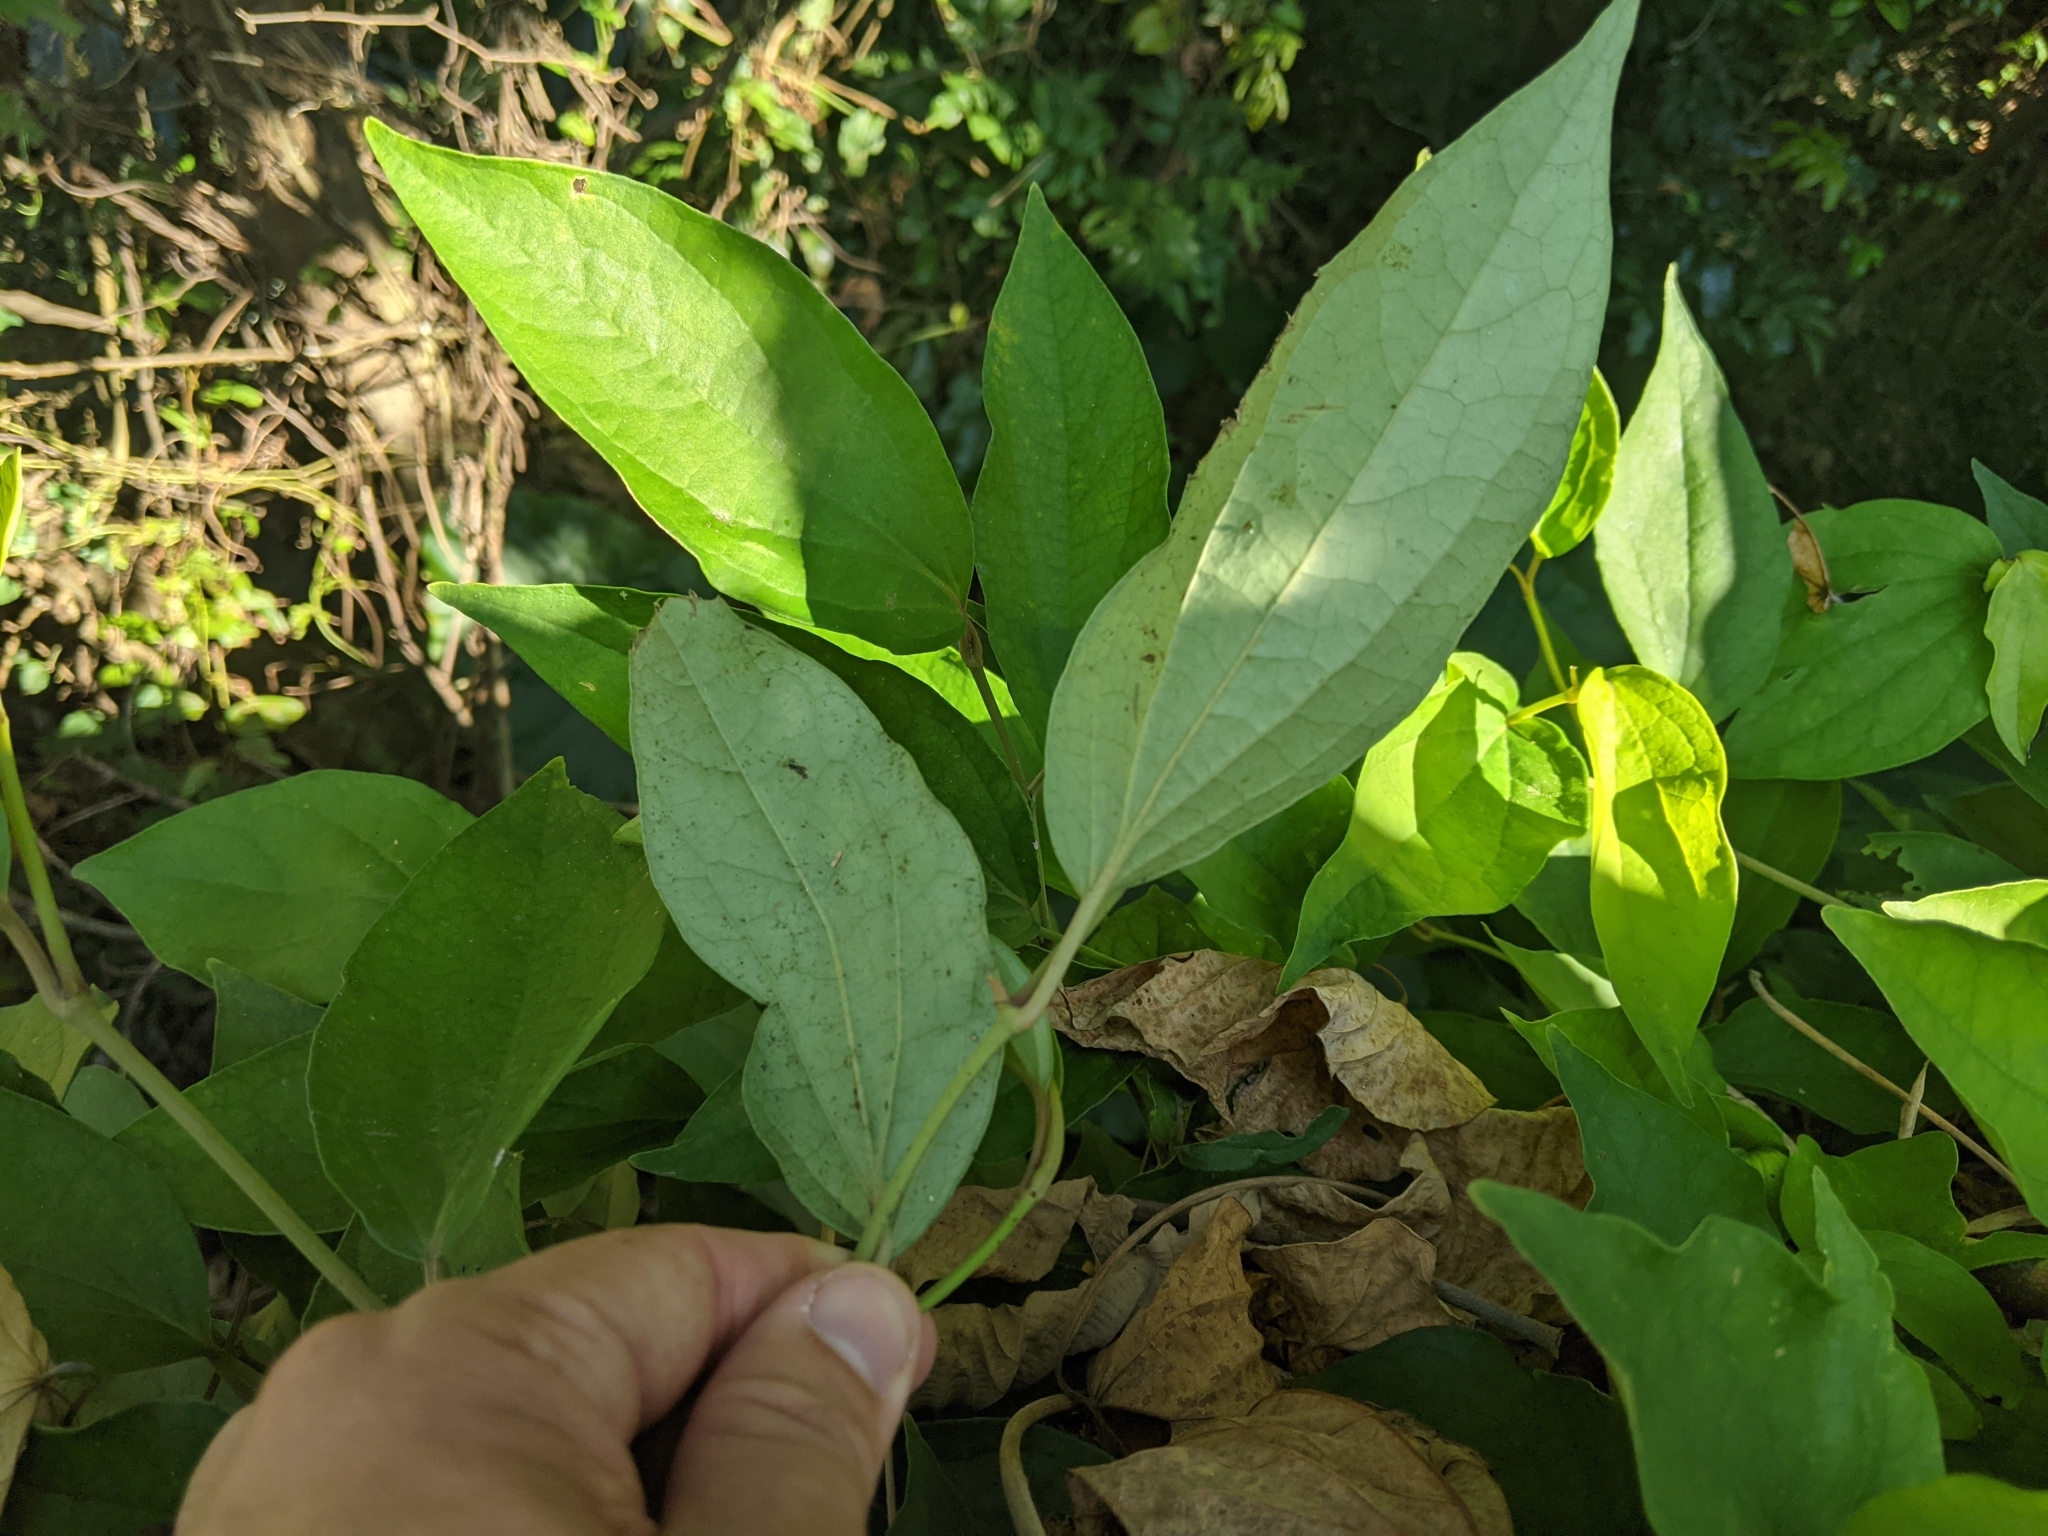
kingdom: Plantae
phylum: Tracheophyta
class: Magnoliopsida
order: Piperales
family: Piperaceae
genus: Piper
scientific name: Piper kadsura
